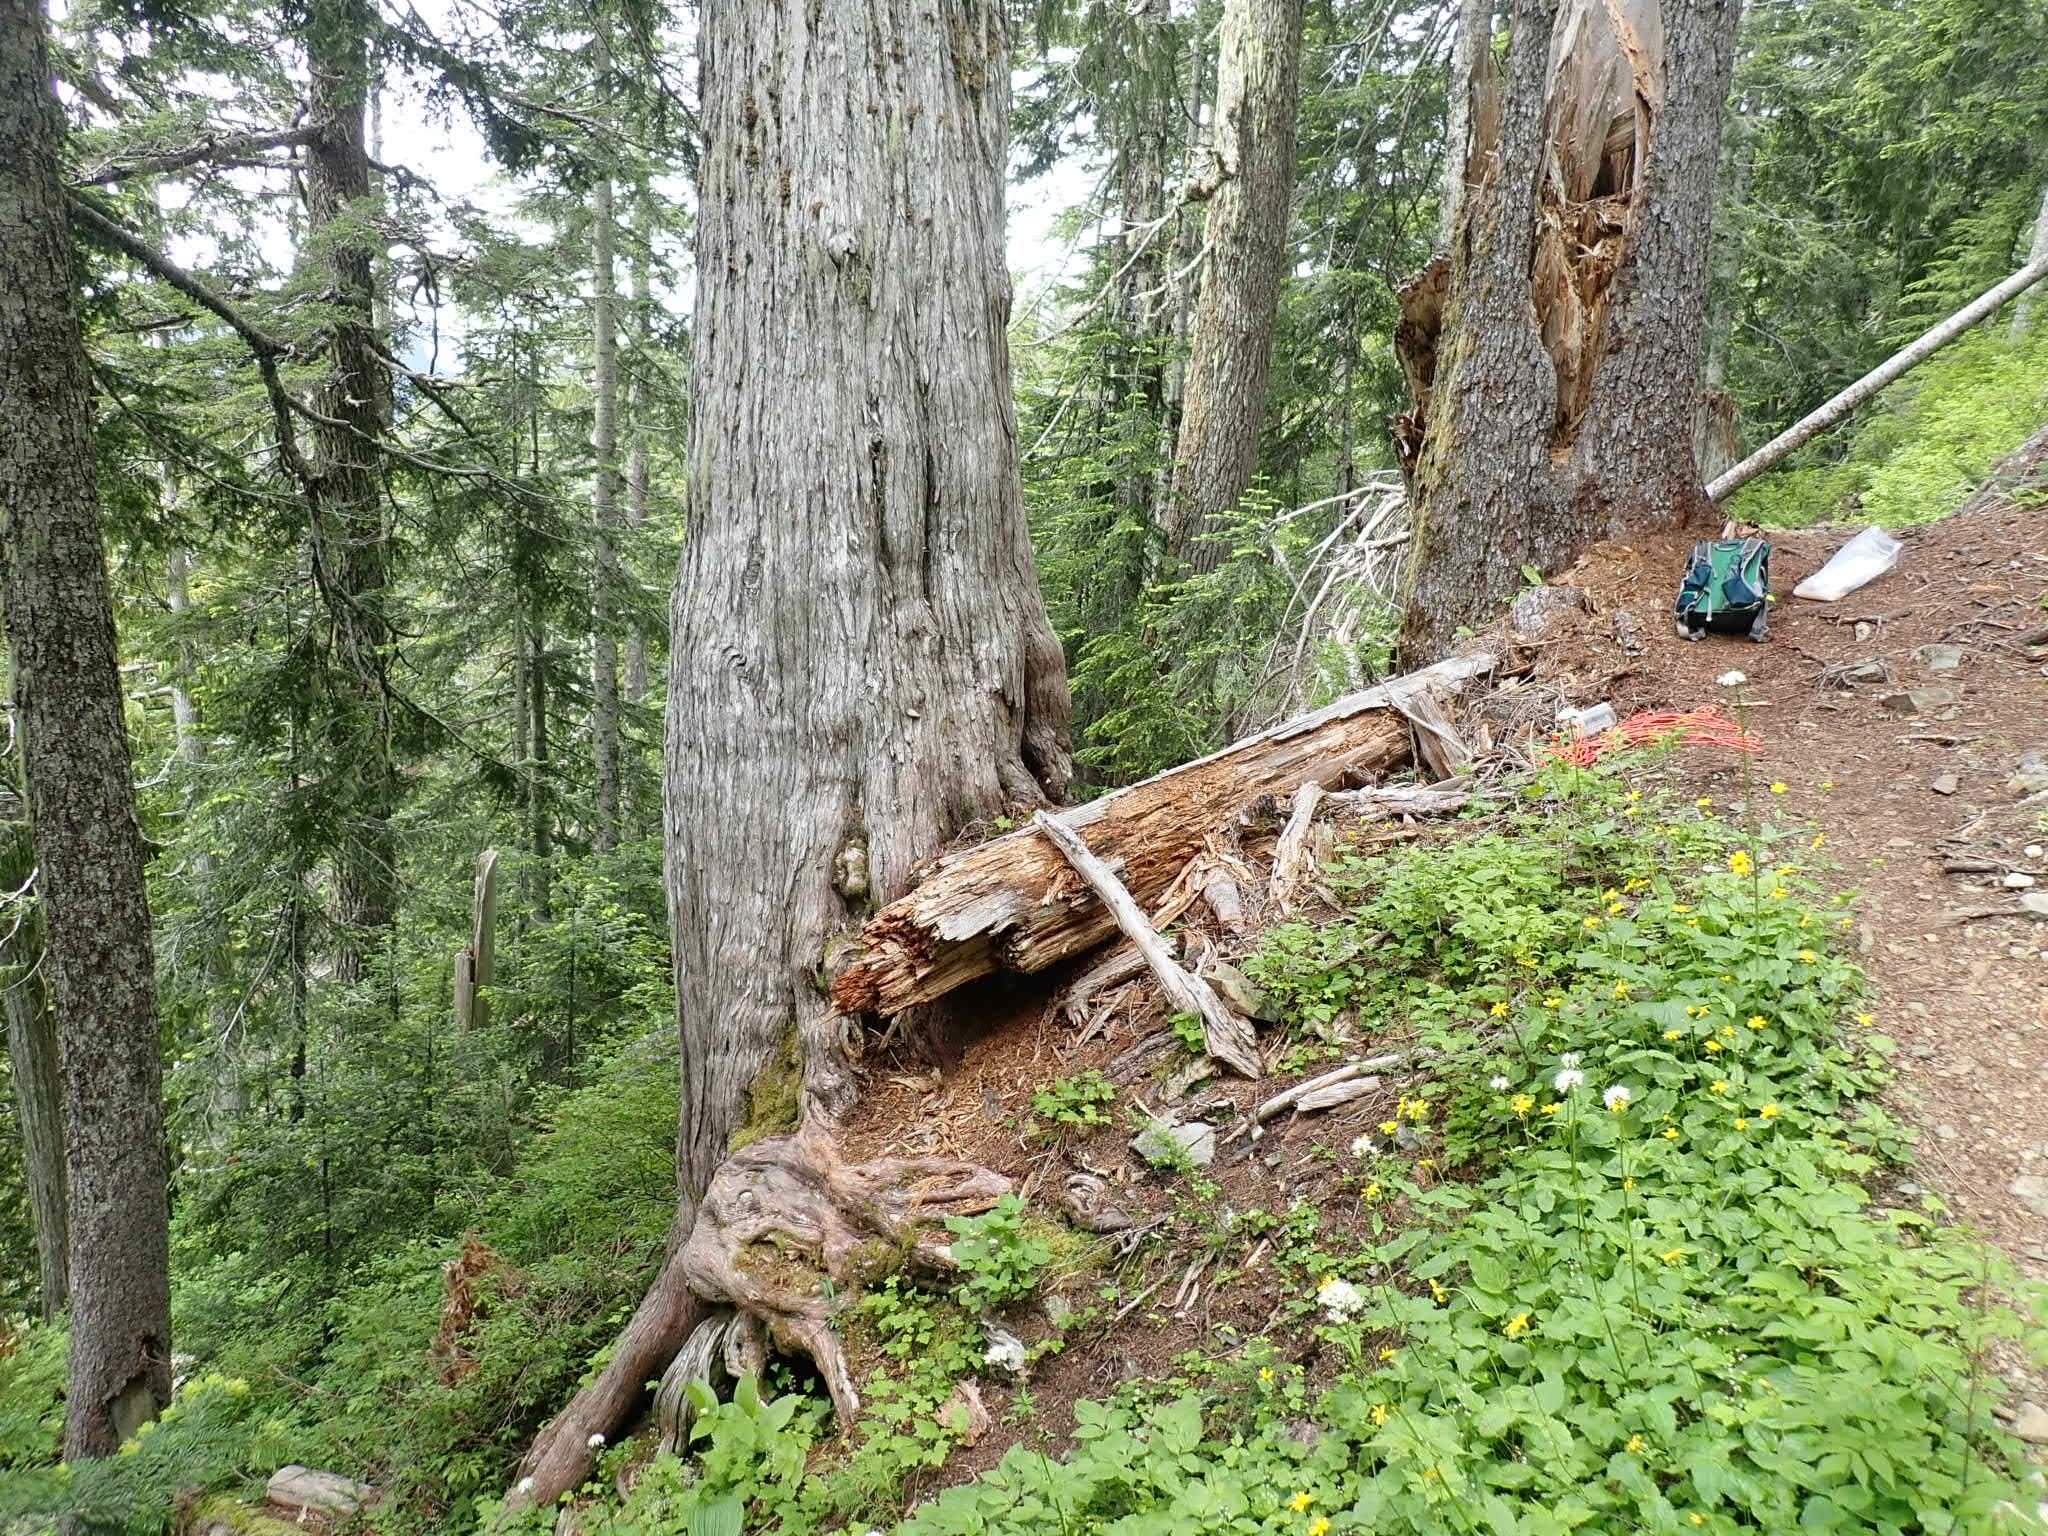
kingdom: Plantae
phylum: Tracheophyta
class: Pinopsida
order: Pinales
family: Cupressaceae
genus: Xanthocyparis
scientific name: Xanthocyparis nootkatensis
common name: Nootka cypress
